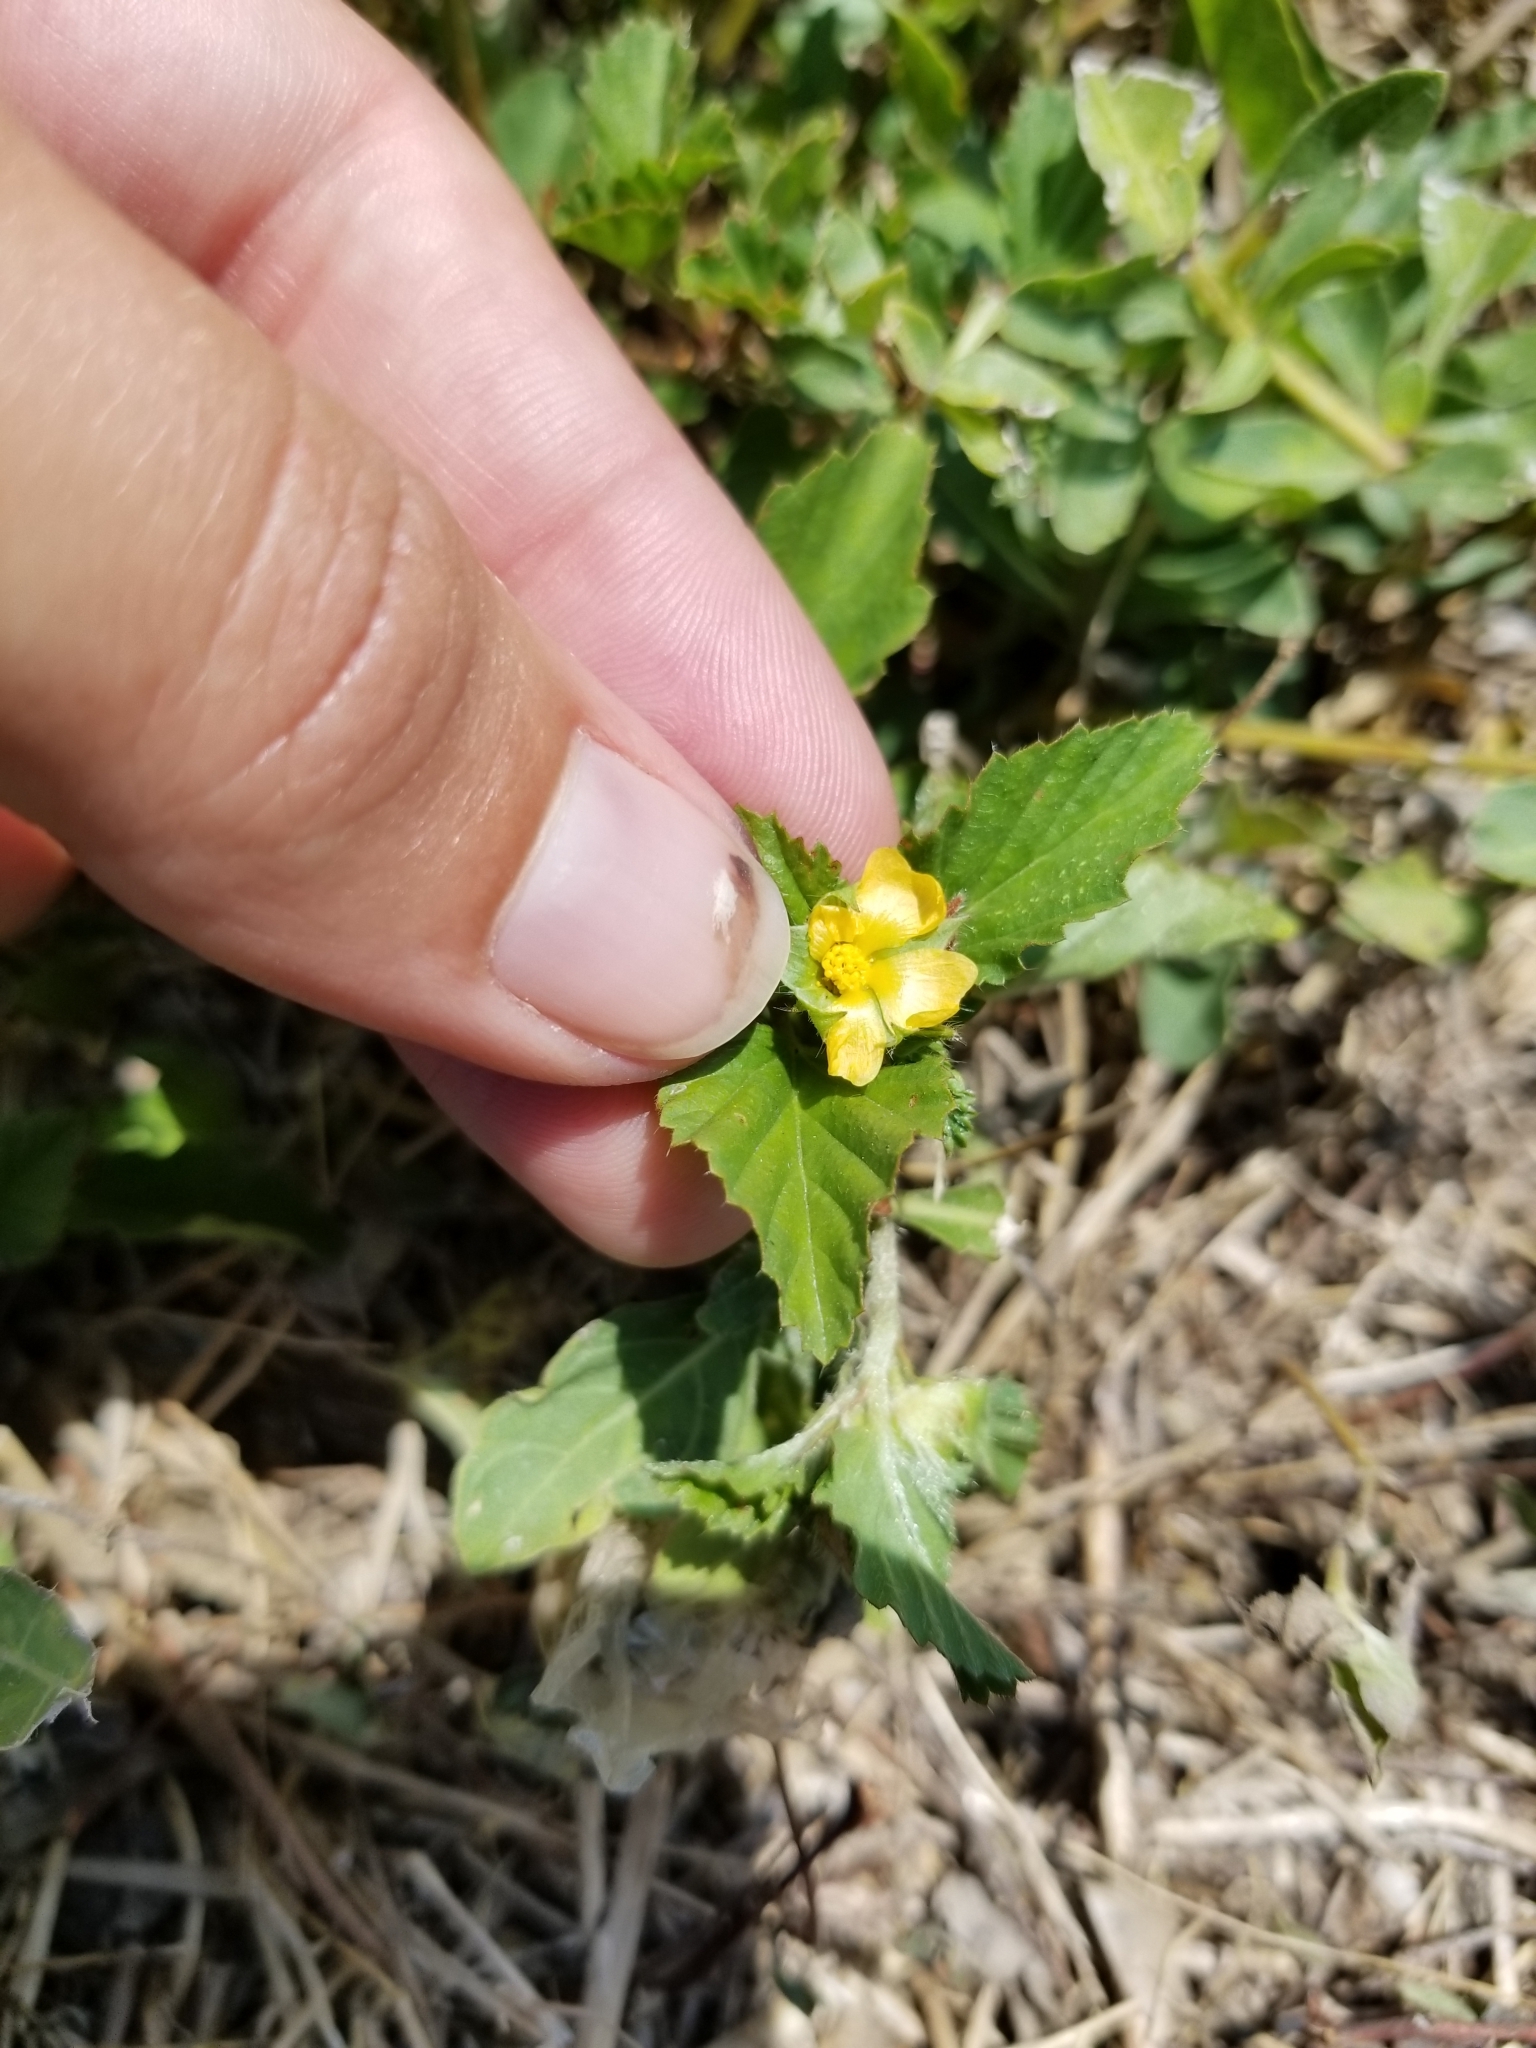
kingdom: Plantae
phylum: Tracheophyta
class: Magnoliopsida
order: Malvales
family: Malvaceae
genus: Malvastrum
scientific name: Malvastrum coromandelianum
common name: Threelobe false mallow
